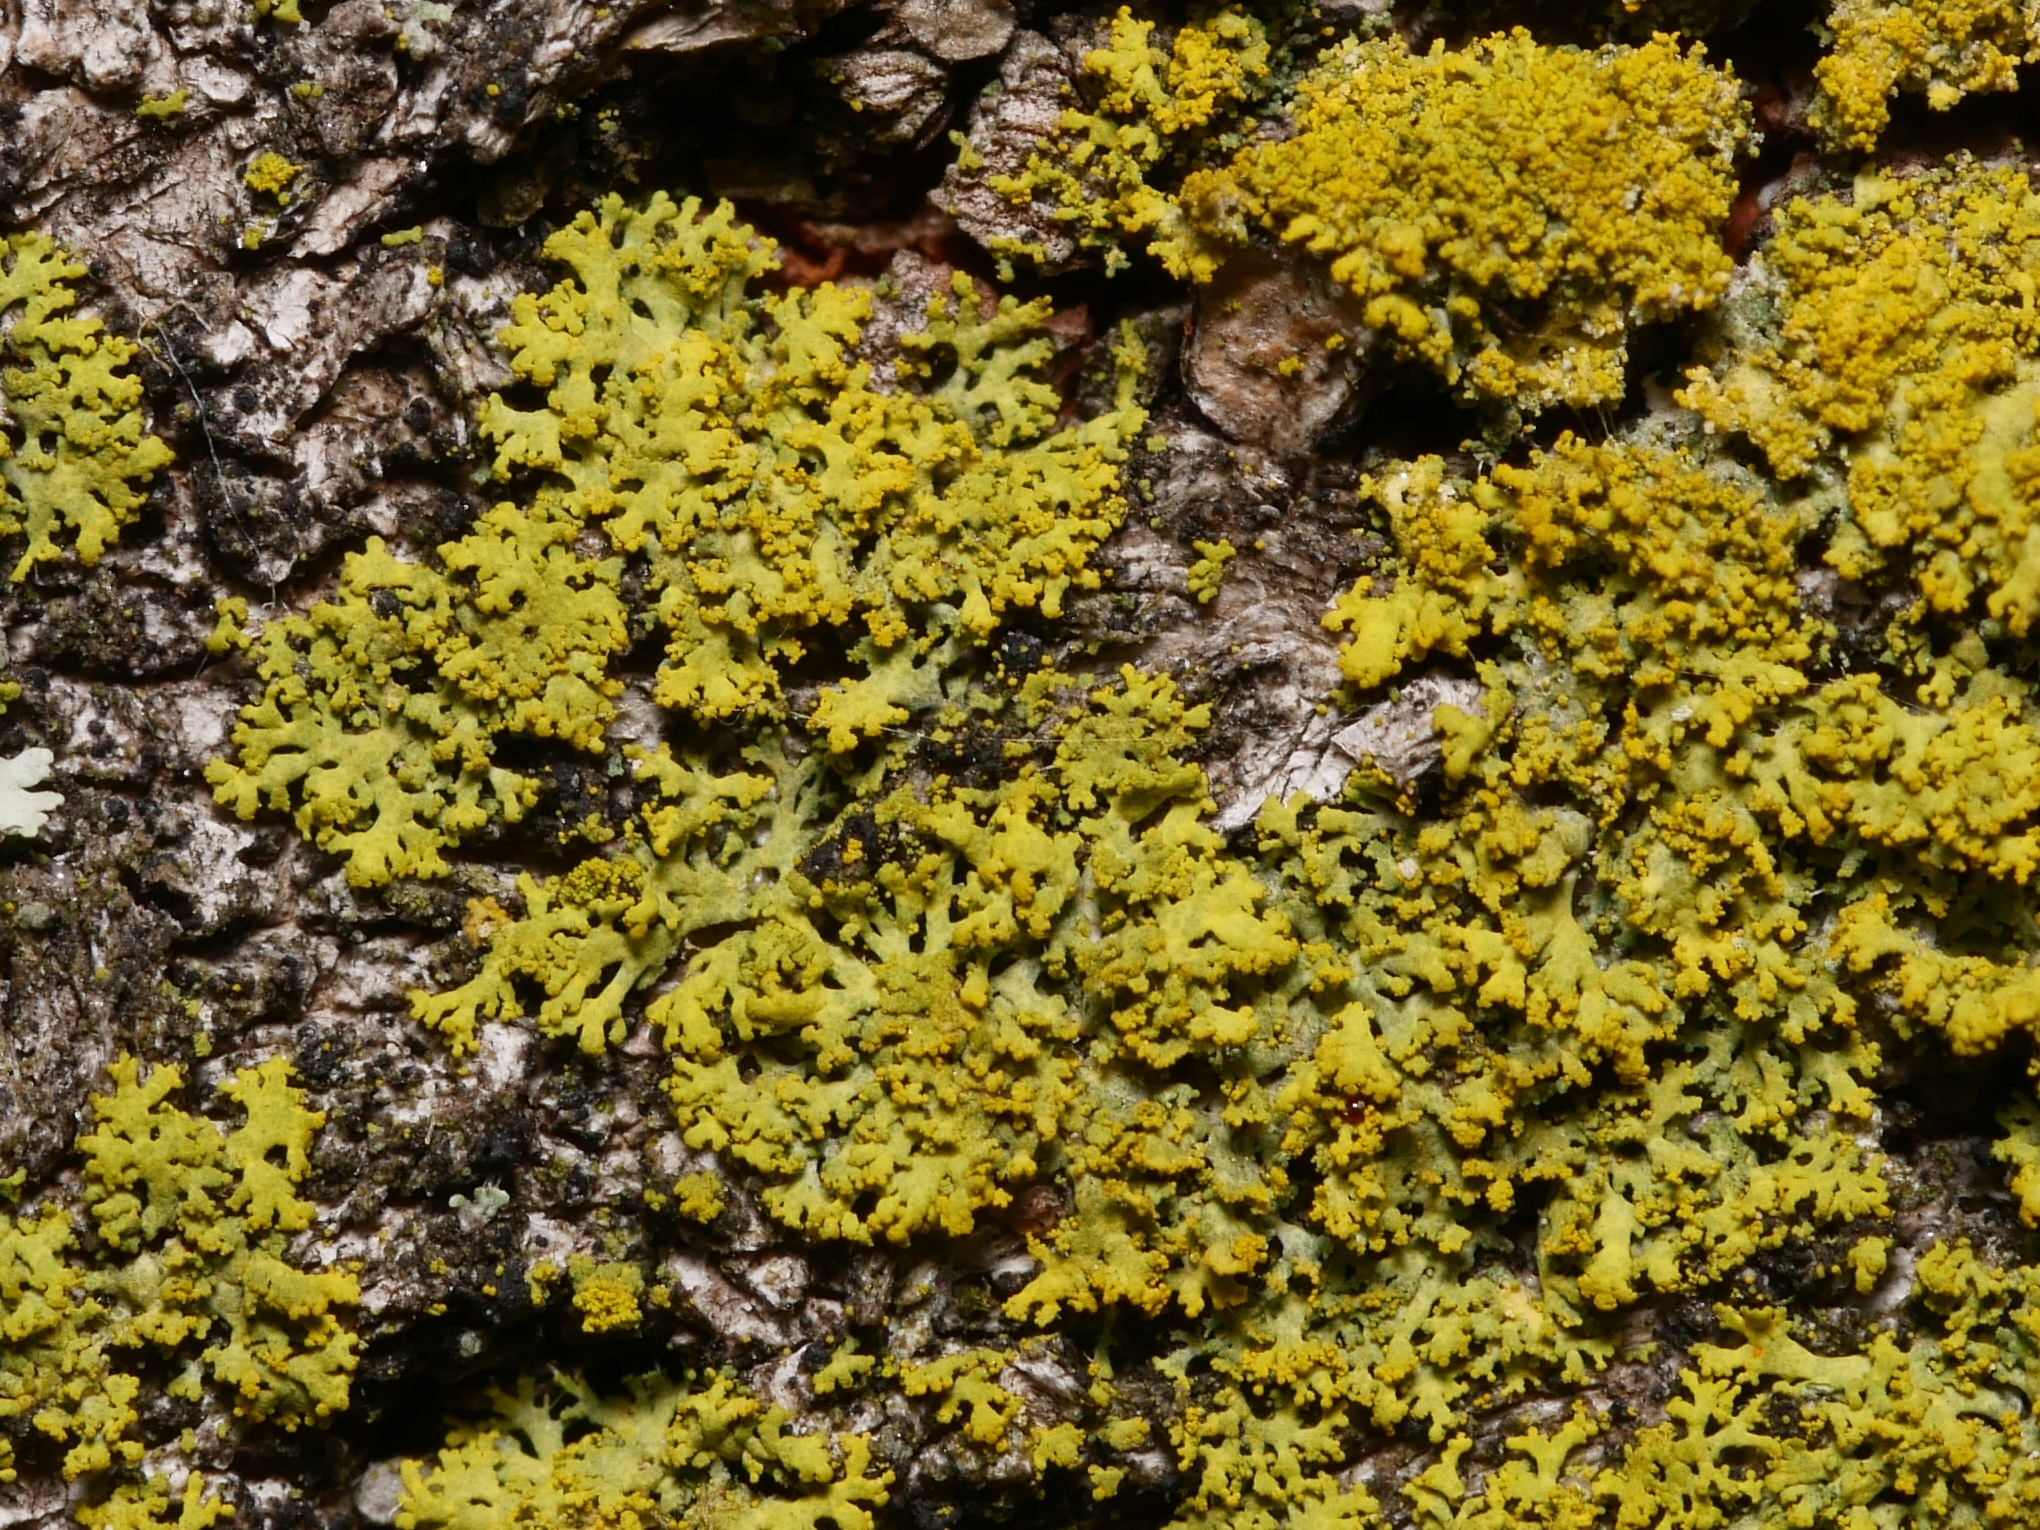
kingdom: Fungi
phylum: Ascomycota
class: Candelariomycetes
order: Candelariales
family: Candelariaceae
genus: Candelaria
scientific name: Candelaria concolor
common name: Candleflame lichen
